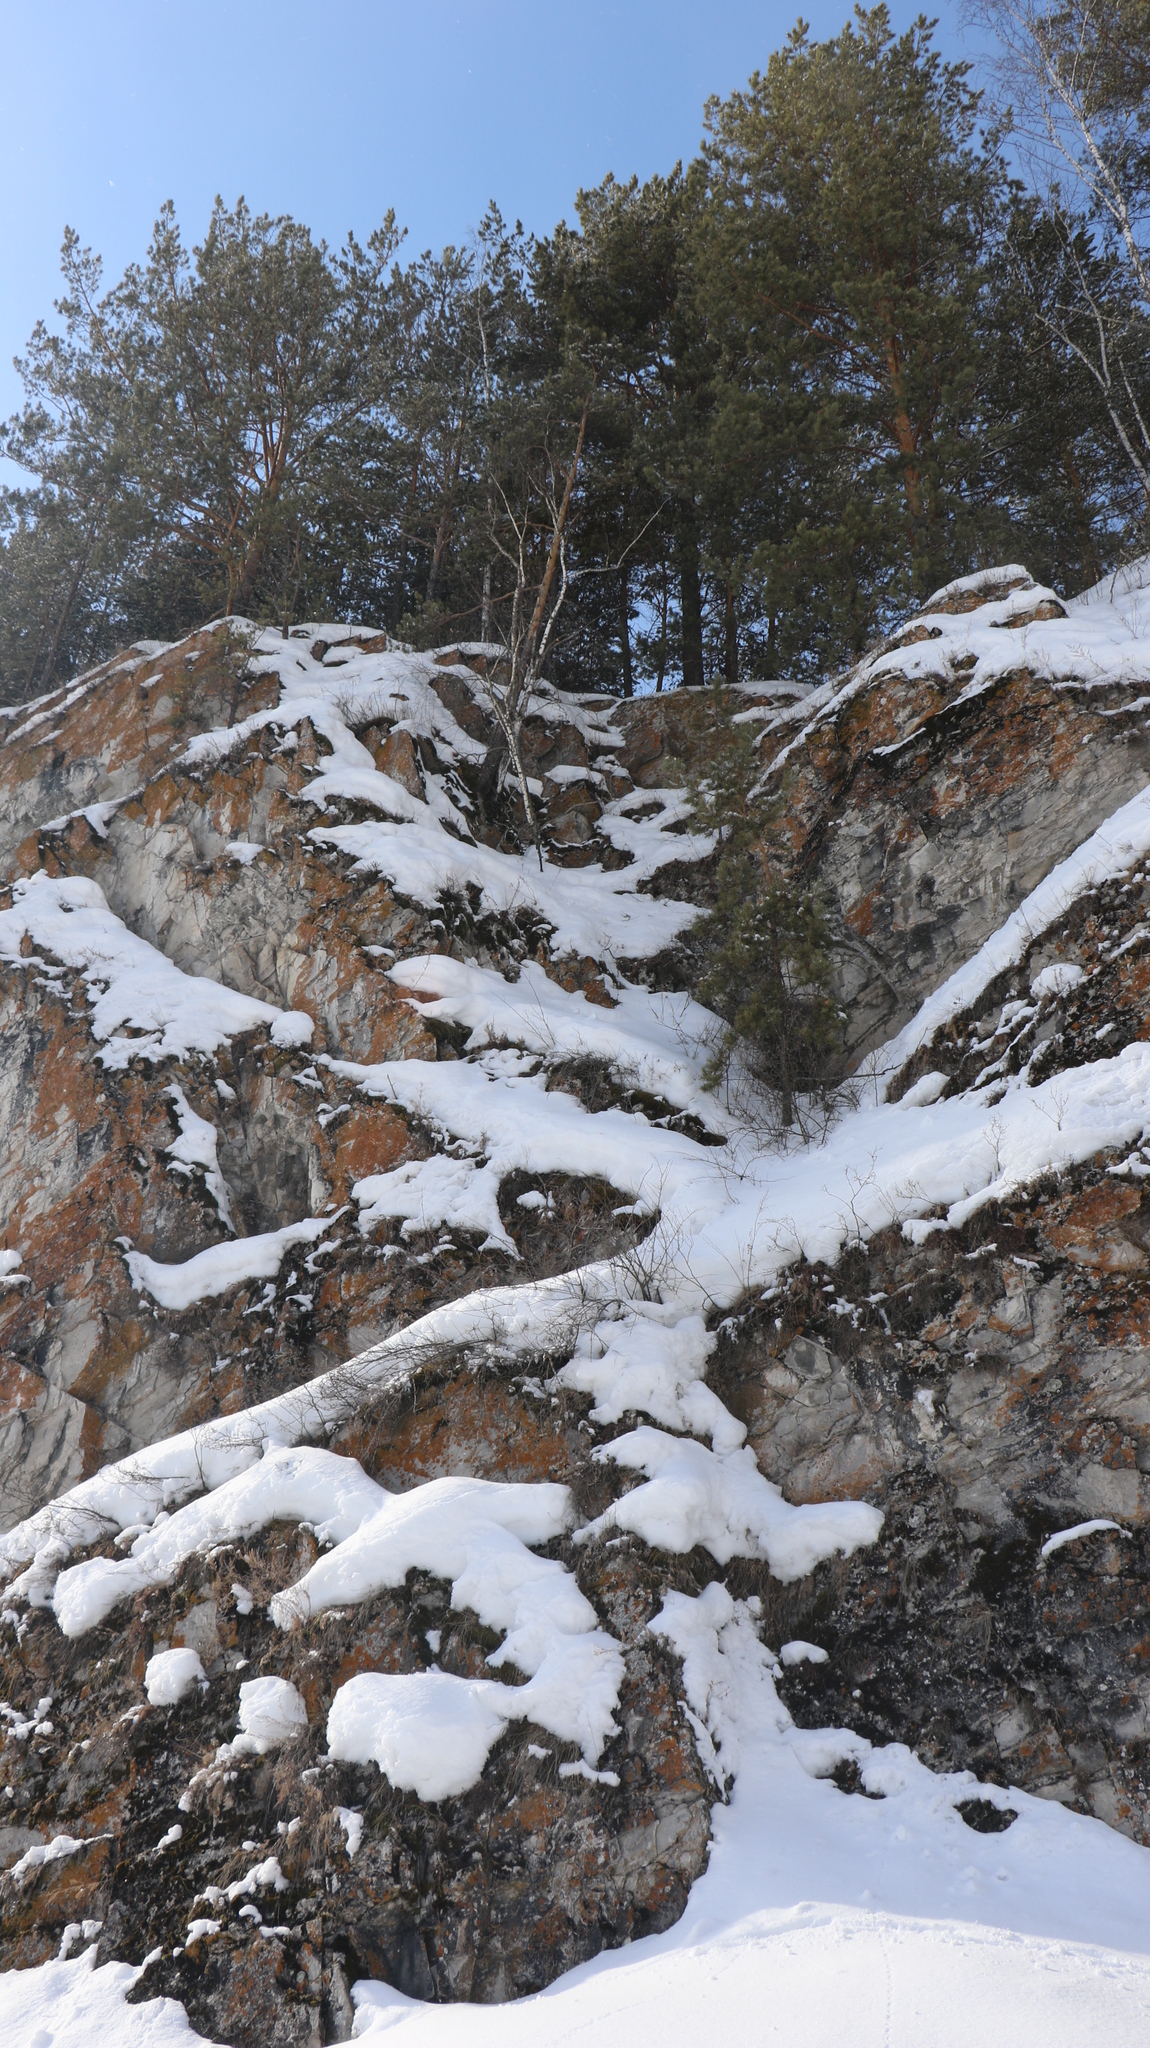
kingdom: Plantae
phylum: Tracheophyta
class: Pinopsida
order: Pinales
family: Pinaceae
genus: Pinus
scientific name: Pinus sylvestris
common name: Scots pine
